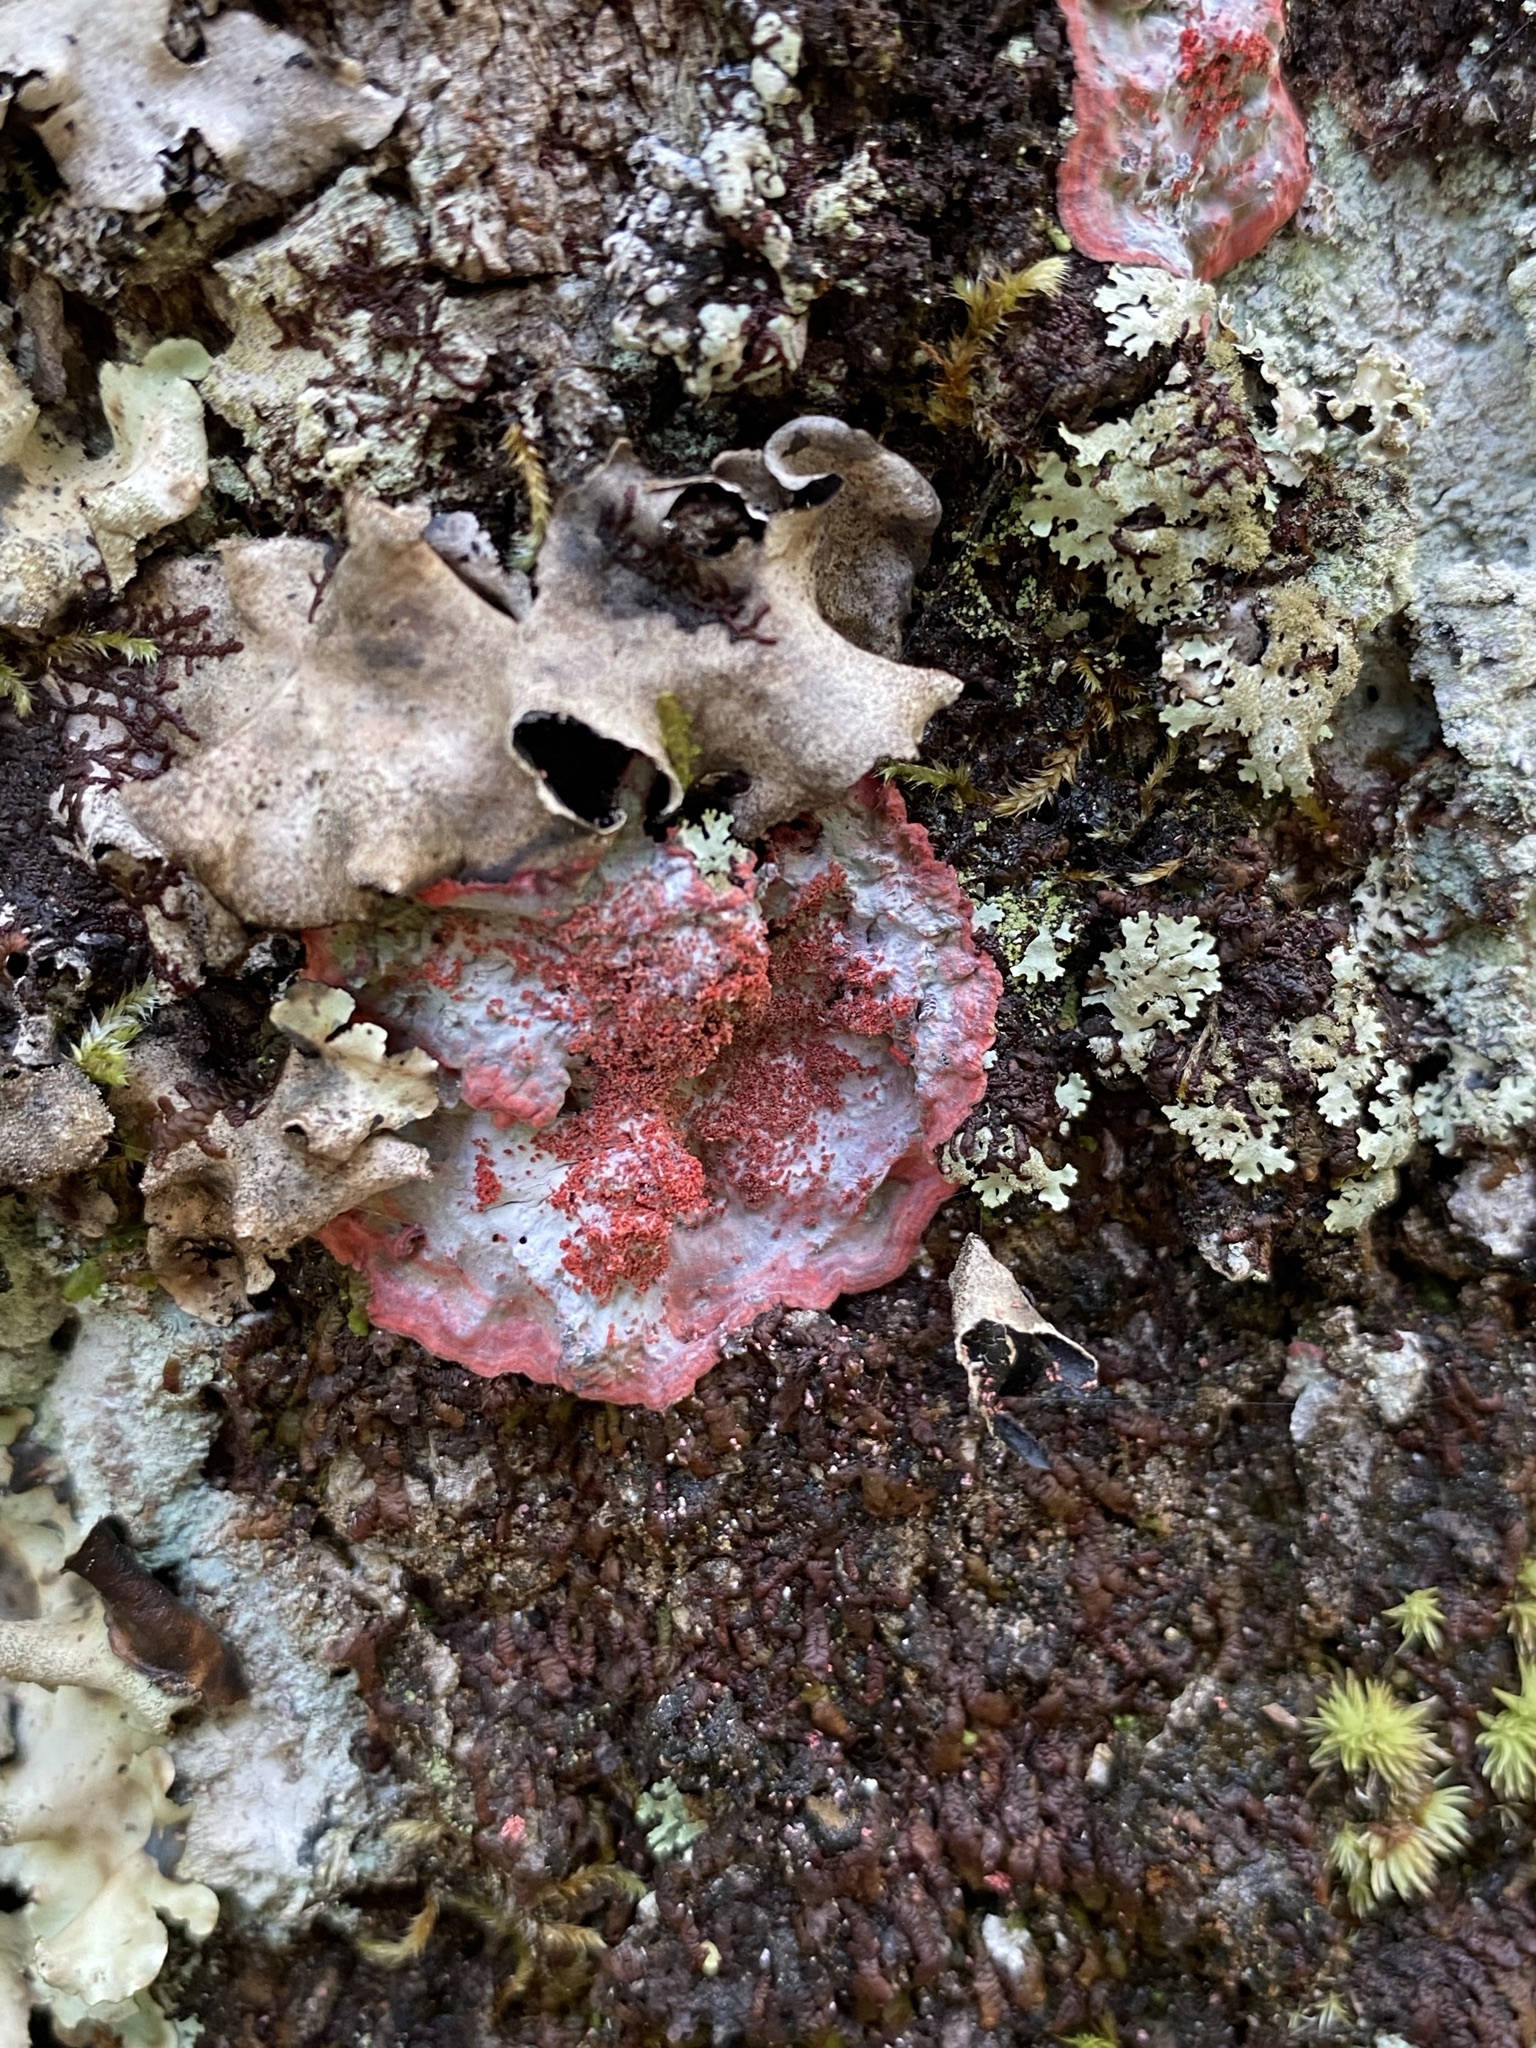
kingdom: Fungi
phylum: Ascomycota
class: Arthoniomycetes
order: Arthoniales
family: Arthoniaceae
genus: Herpothallon
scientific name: Herpothallon rubrocinctum
